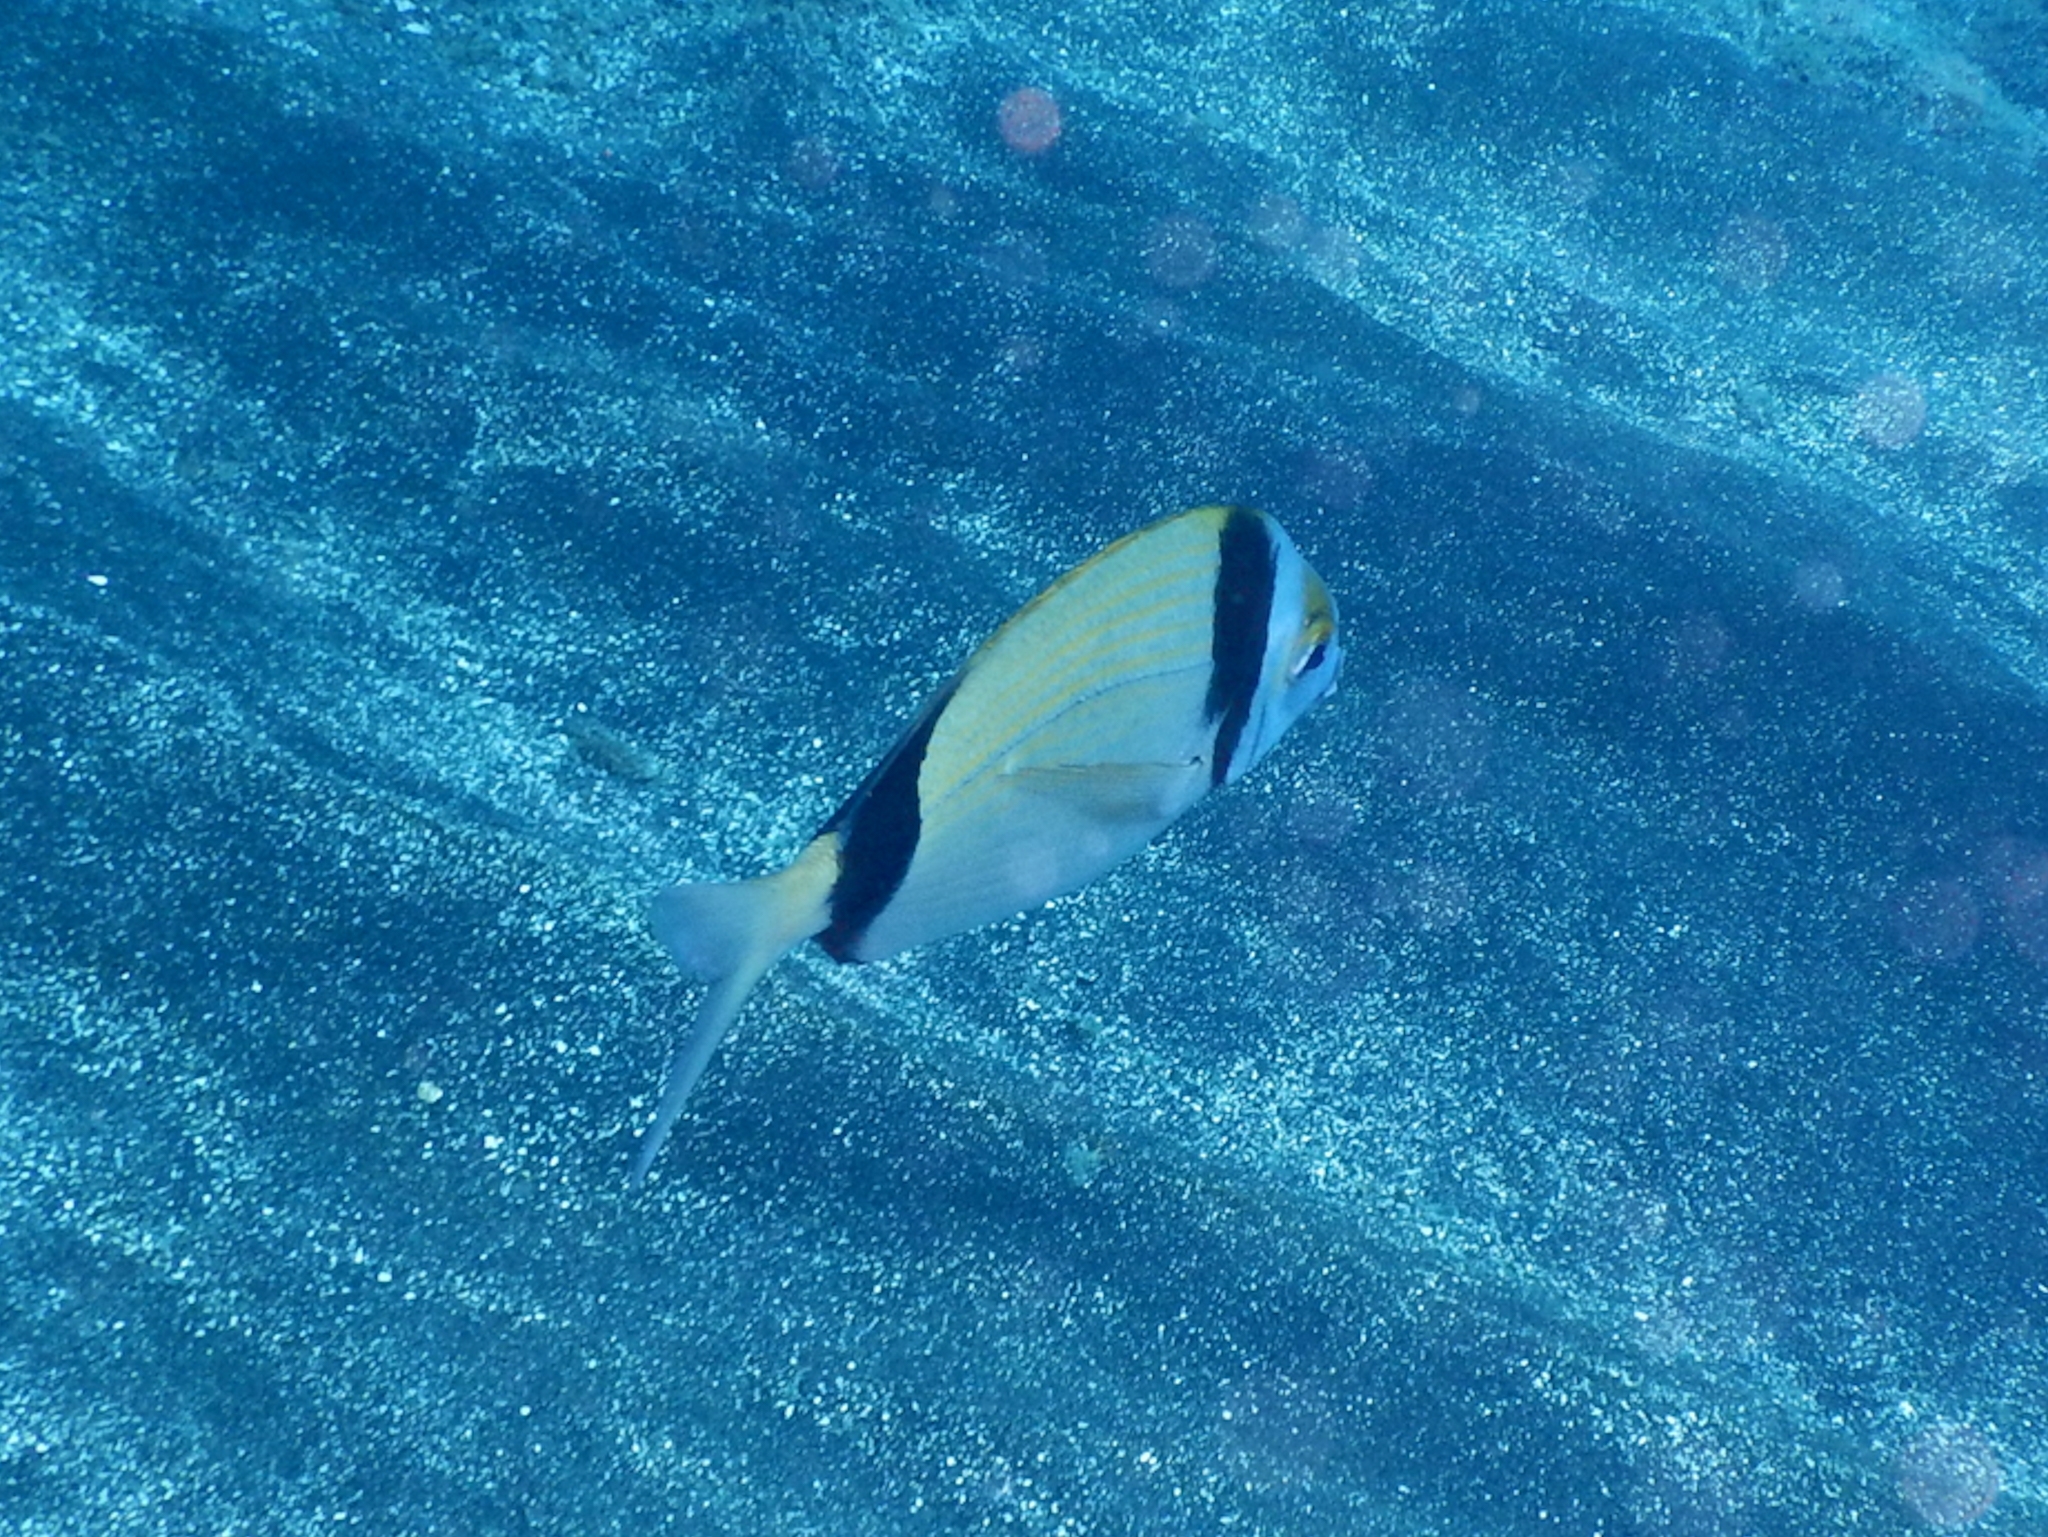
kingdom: Animalia
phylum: Chordata
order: Perciformes
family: Sparidae
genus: Diplodus
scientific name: Diplodus vulgaris
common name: Common two-banded seabream
